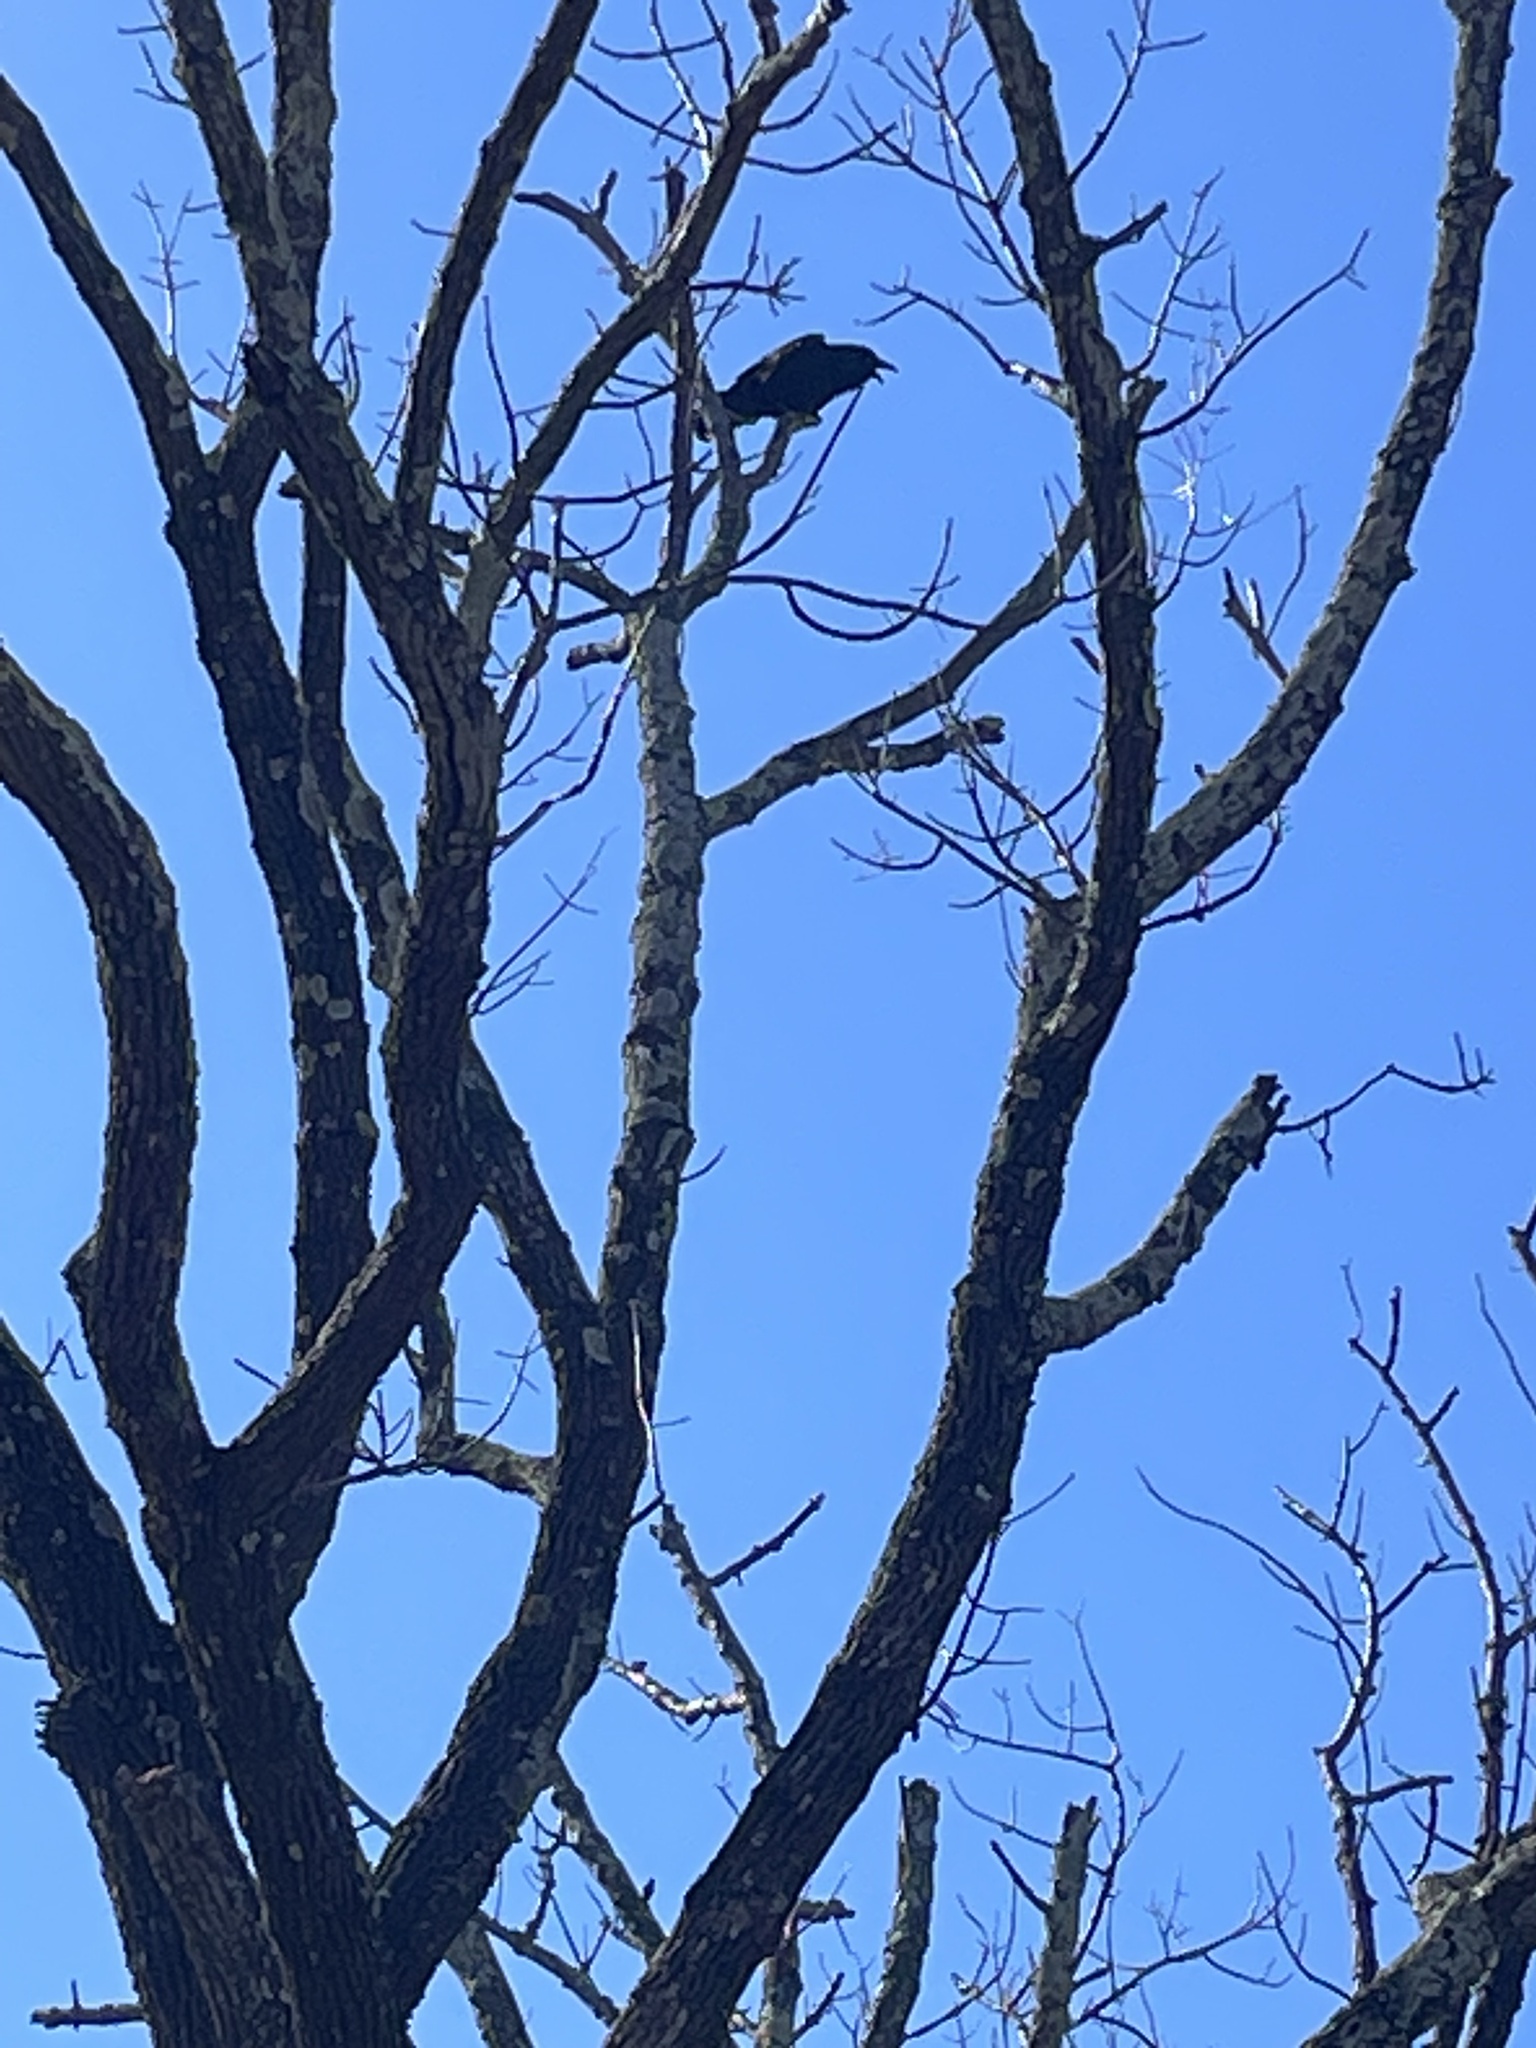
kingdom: Animalia
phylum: Chordata
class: Aves
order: Passeriformes
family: Corvidae
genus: Corvus
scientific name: Corvus brachyrhynchos
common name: American crow
